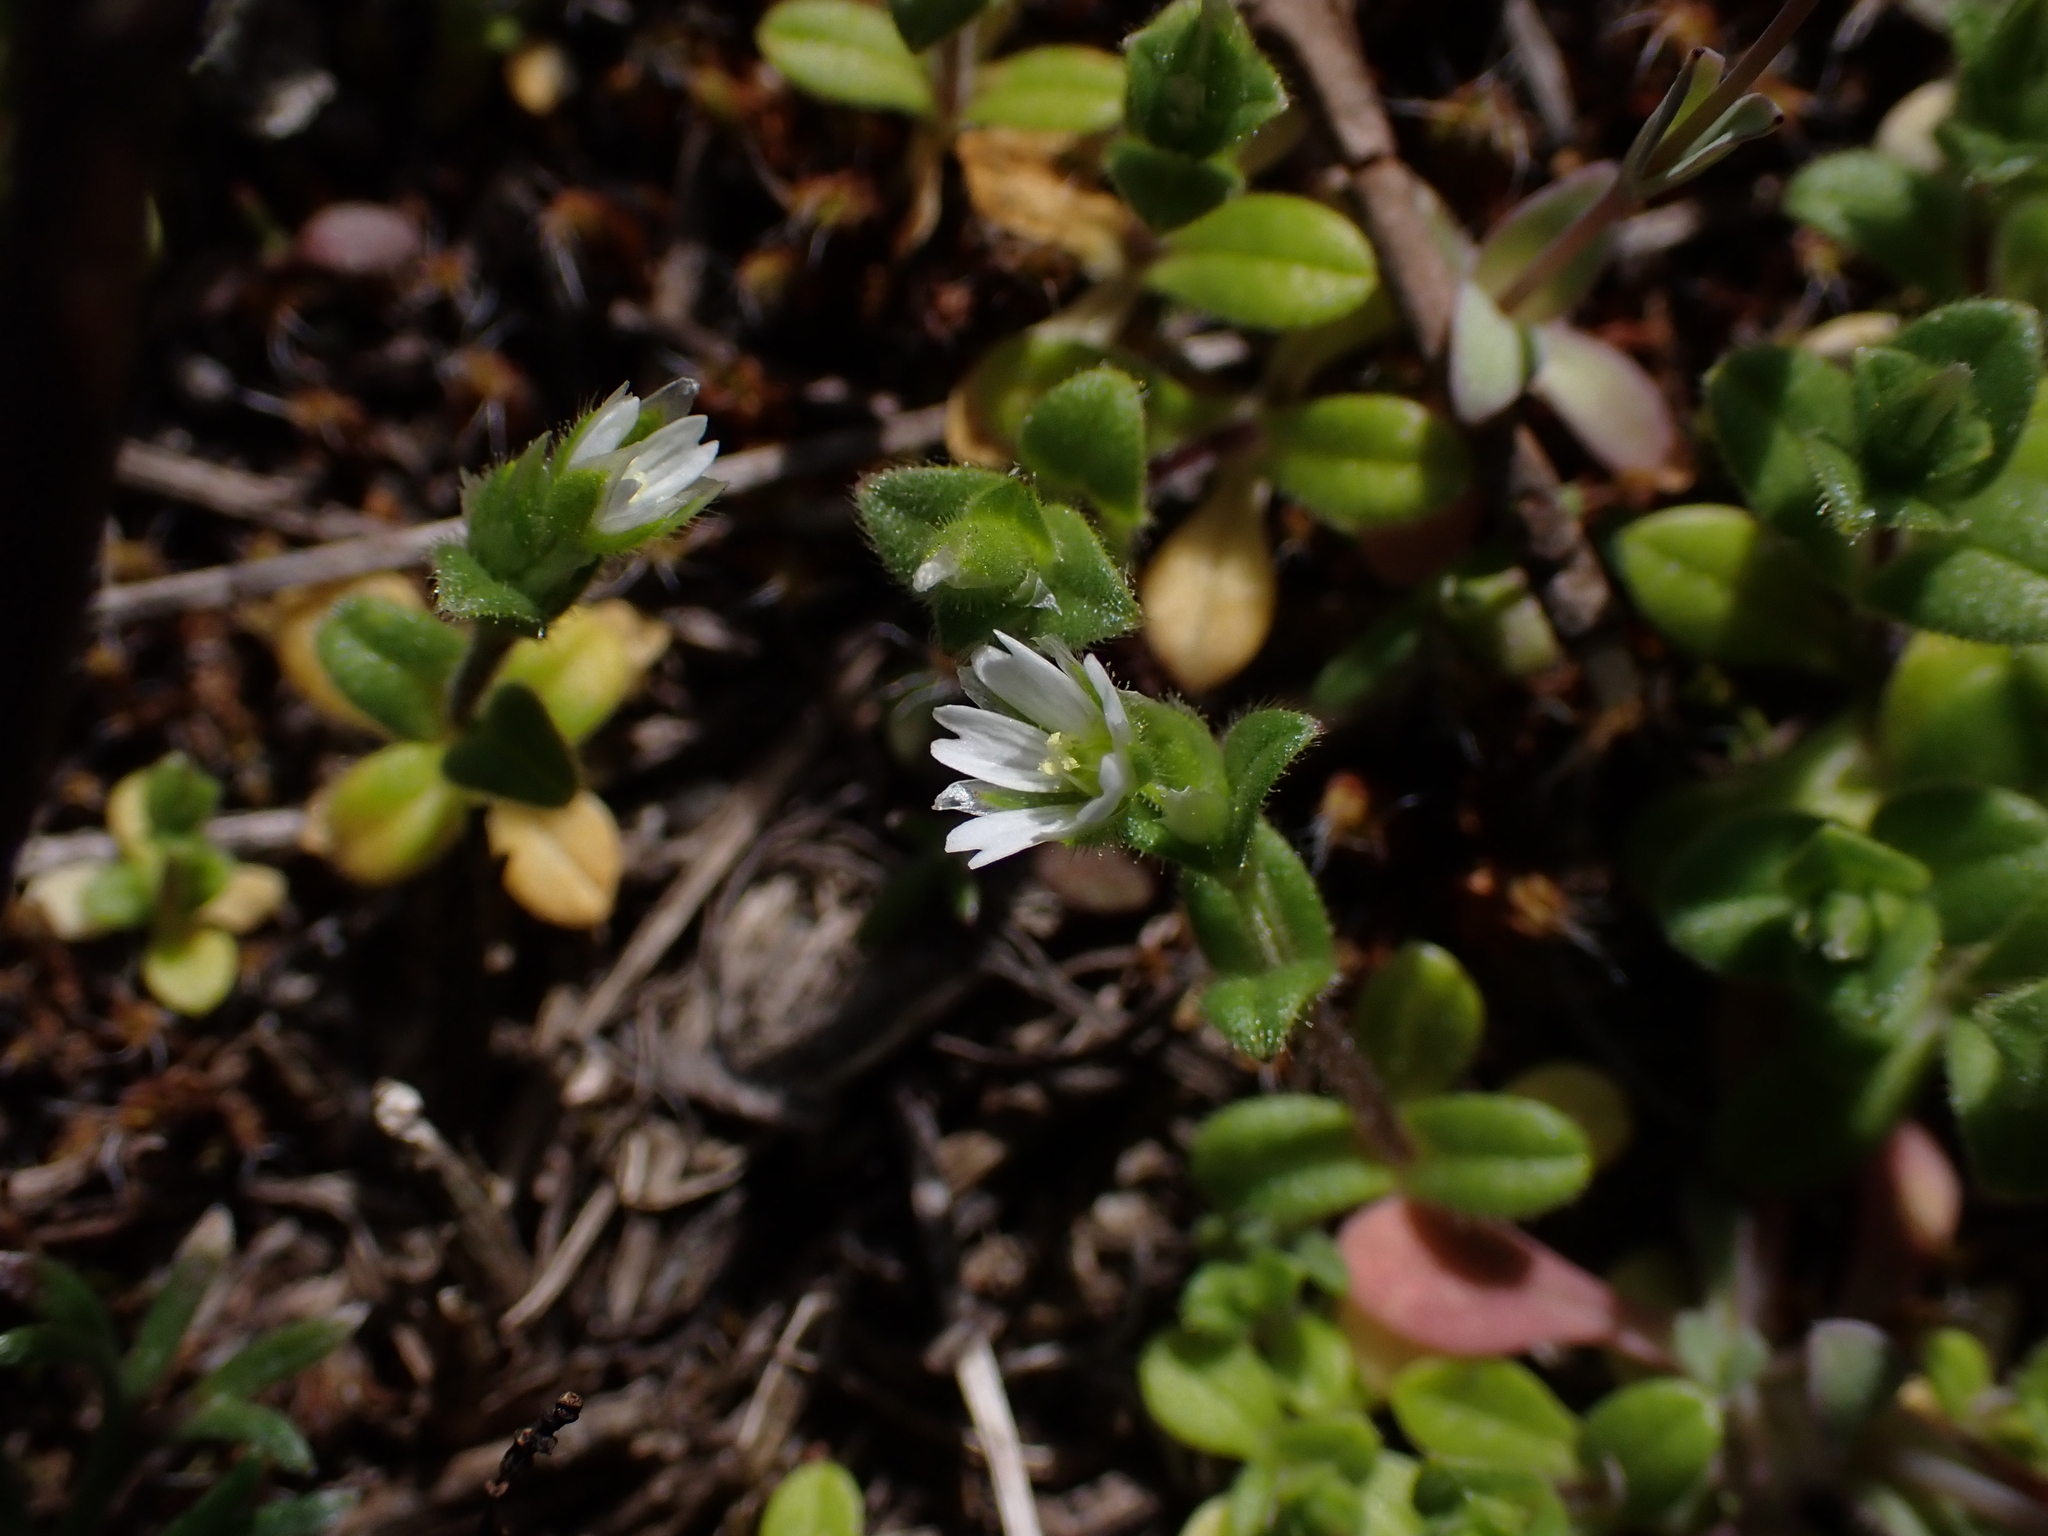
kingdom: Plantae
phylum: Tracheophyta
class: Magnoliopsida
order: Caryophyllales
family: Caryophyllaceae
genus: Cerastium
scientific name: Cerastium semidecandrum
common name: Little mouse-ear
